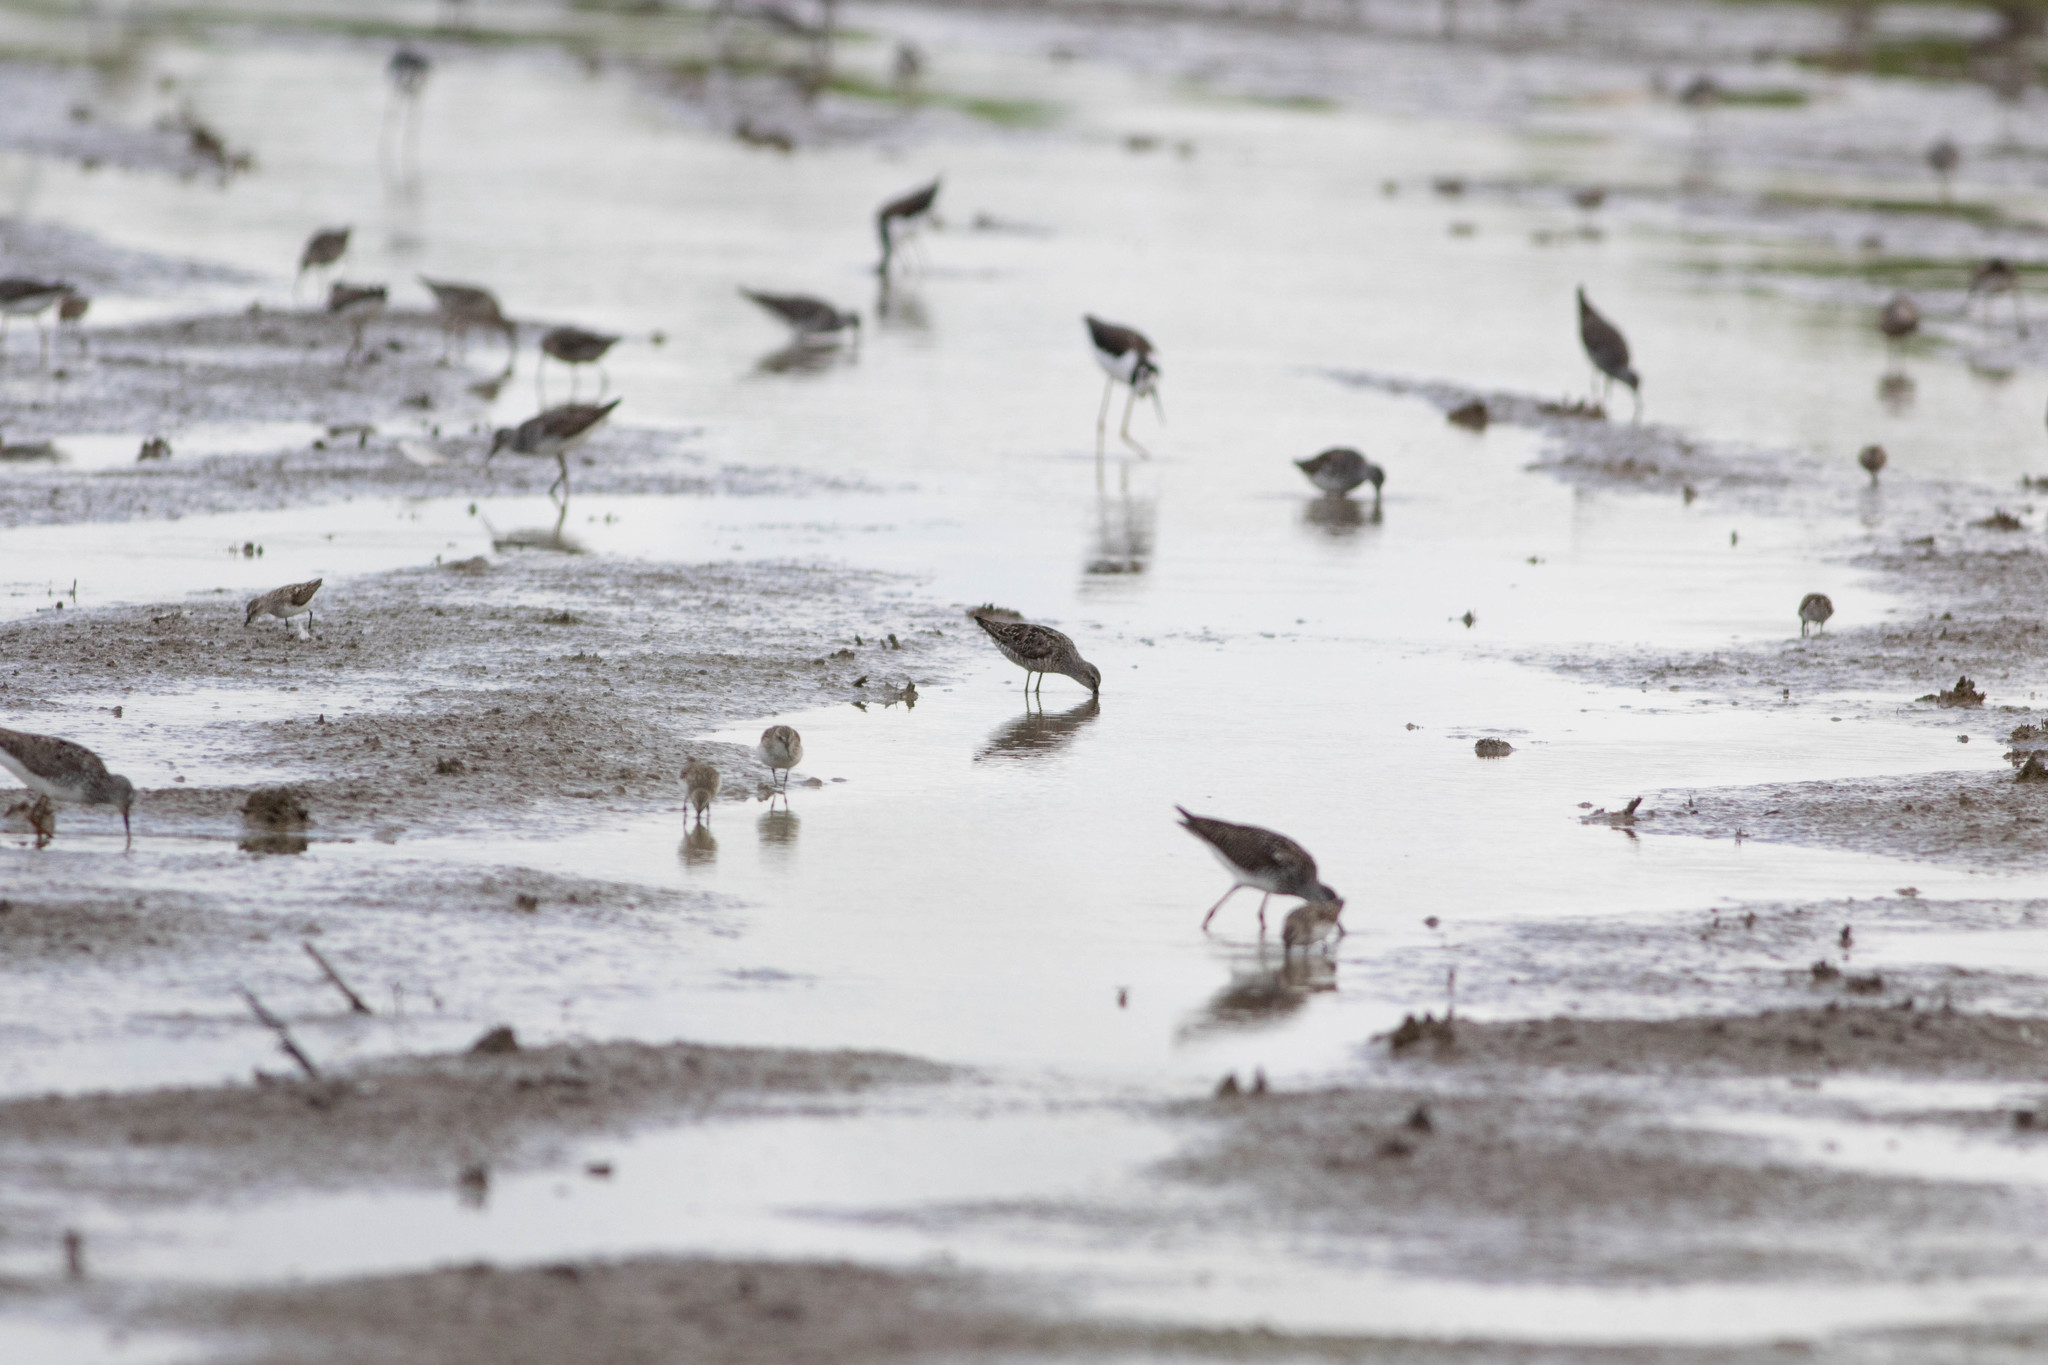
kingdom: Animalia
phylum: Chordata
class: Aves
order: Charadriiformes
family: Scolopacidae
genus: Calidris
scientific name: Calidris pusilla
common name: Semipalmated sandpiper
